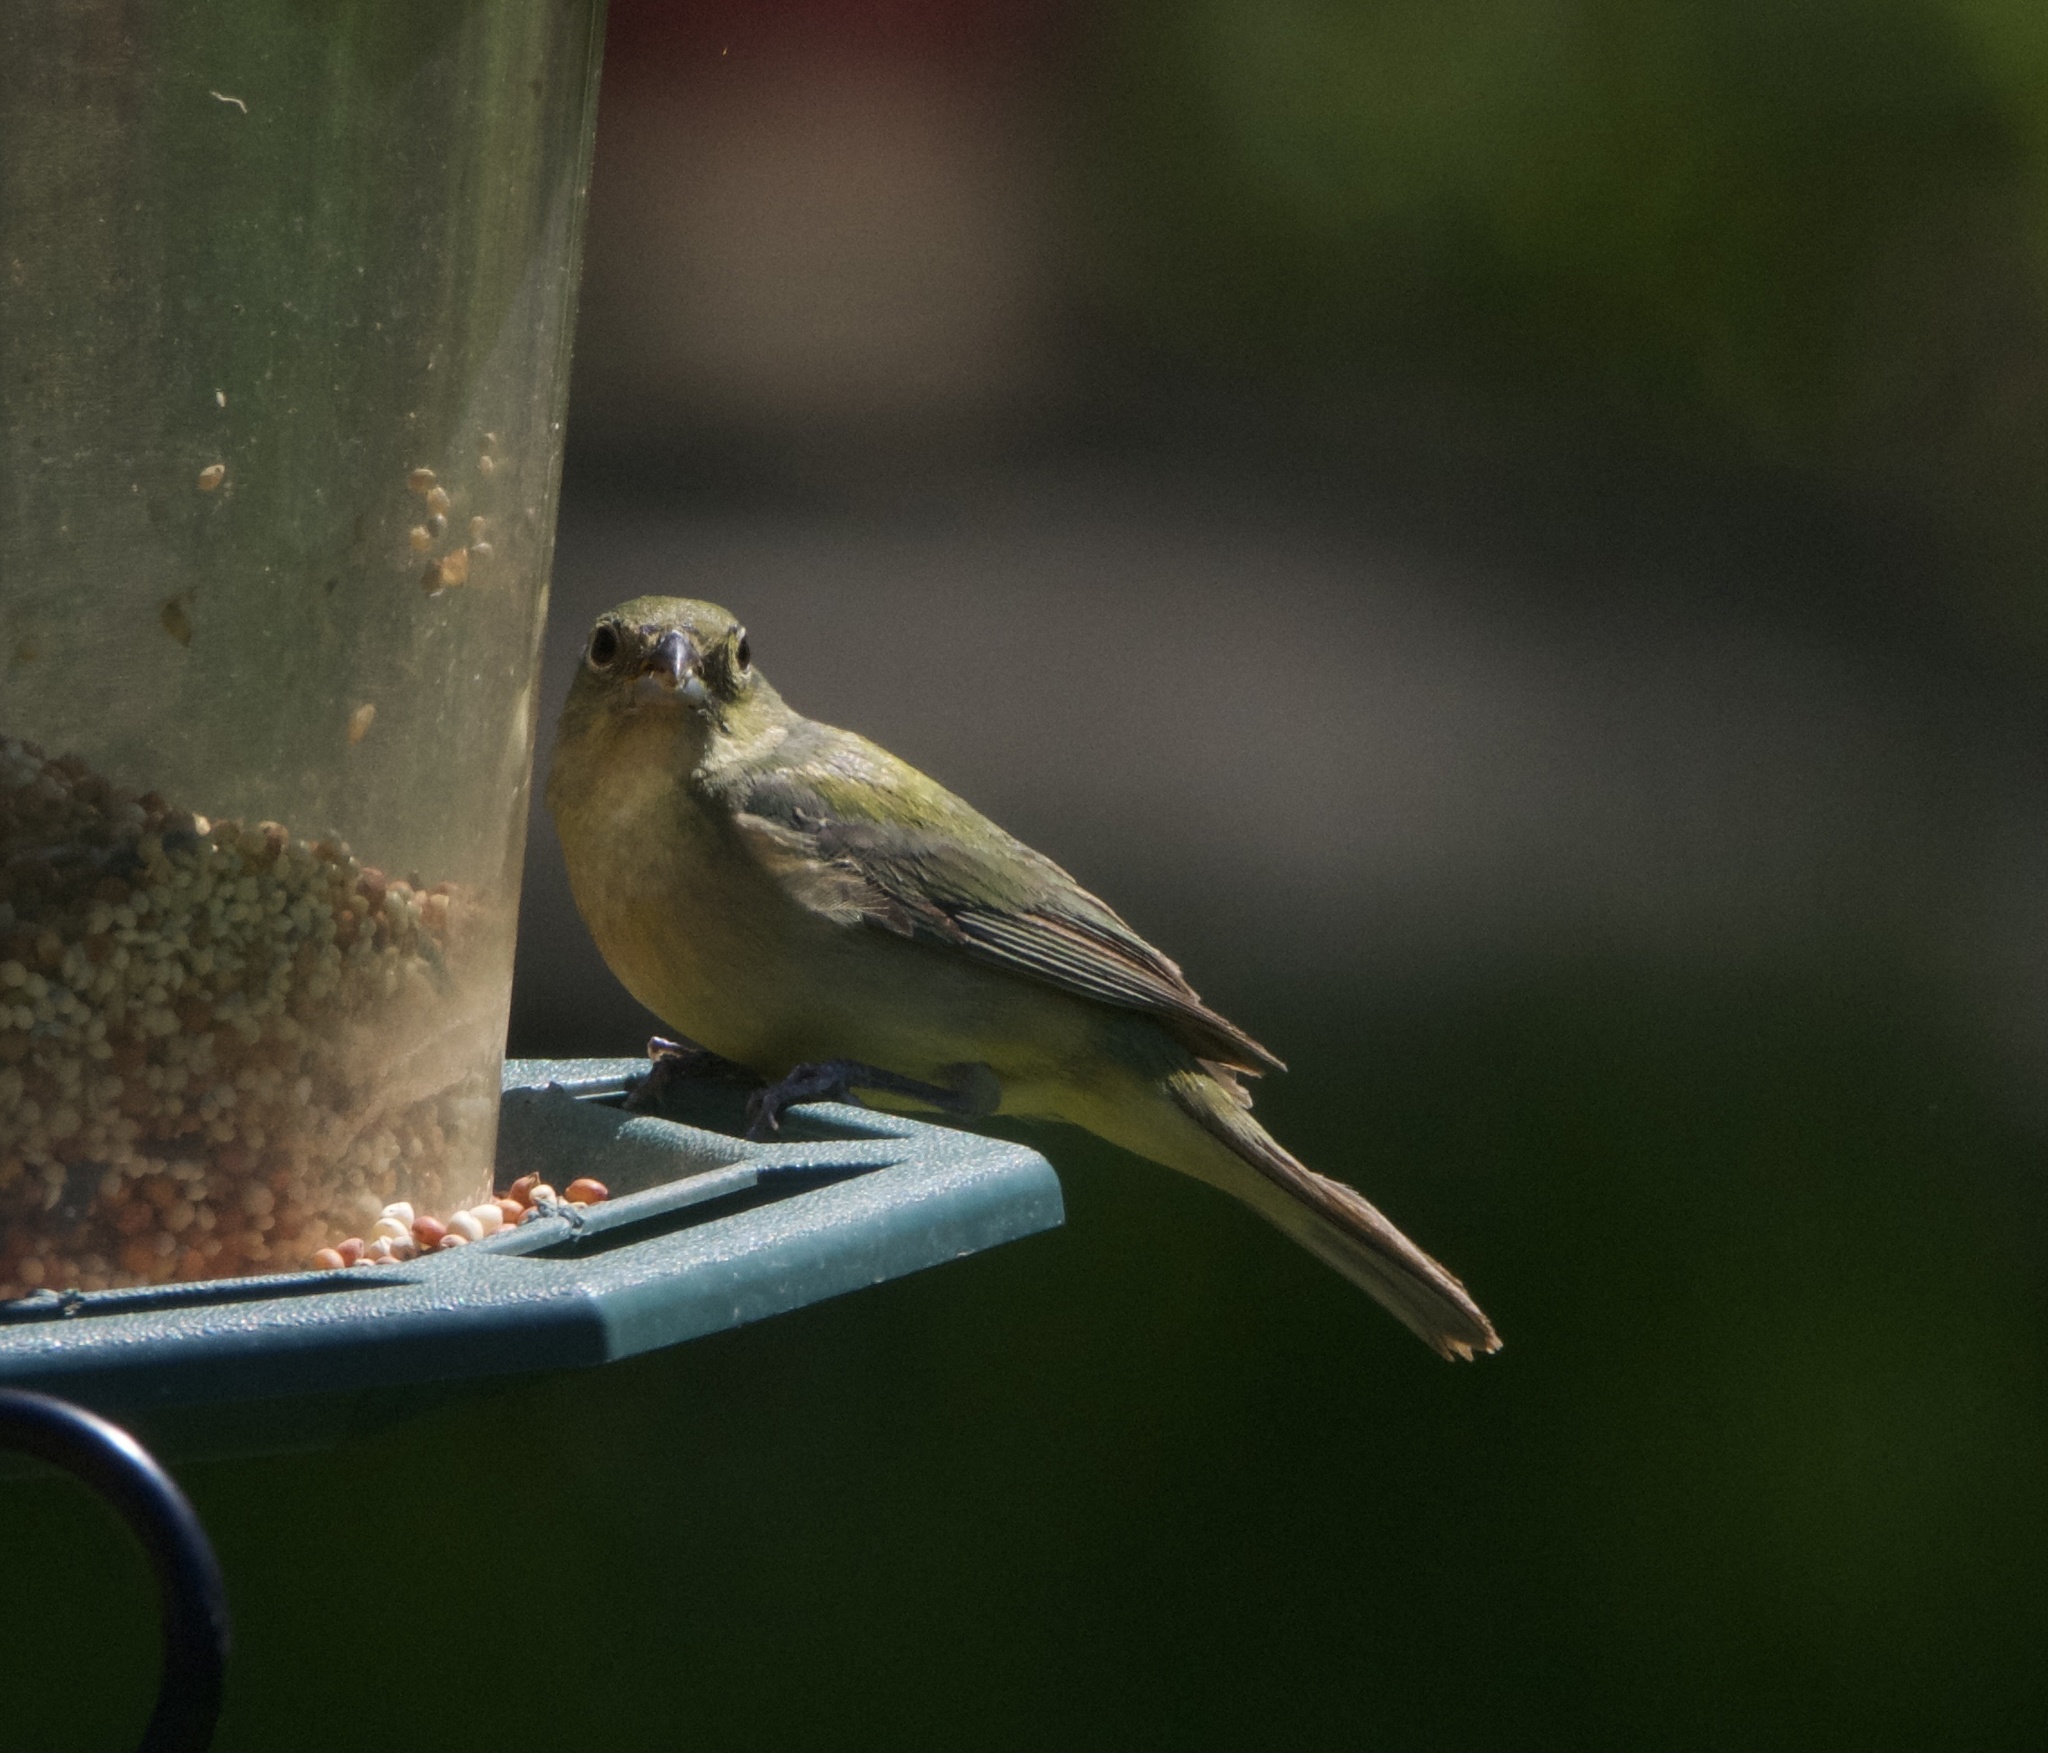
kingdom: Animalia
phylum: Chordata
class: Aves
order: Passeriformes
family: Cardinalidae
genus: Passerina
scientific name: Passerina ciris
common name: Painted bunting
